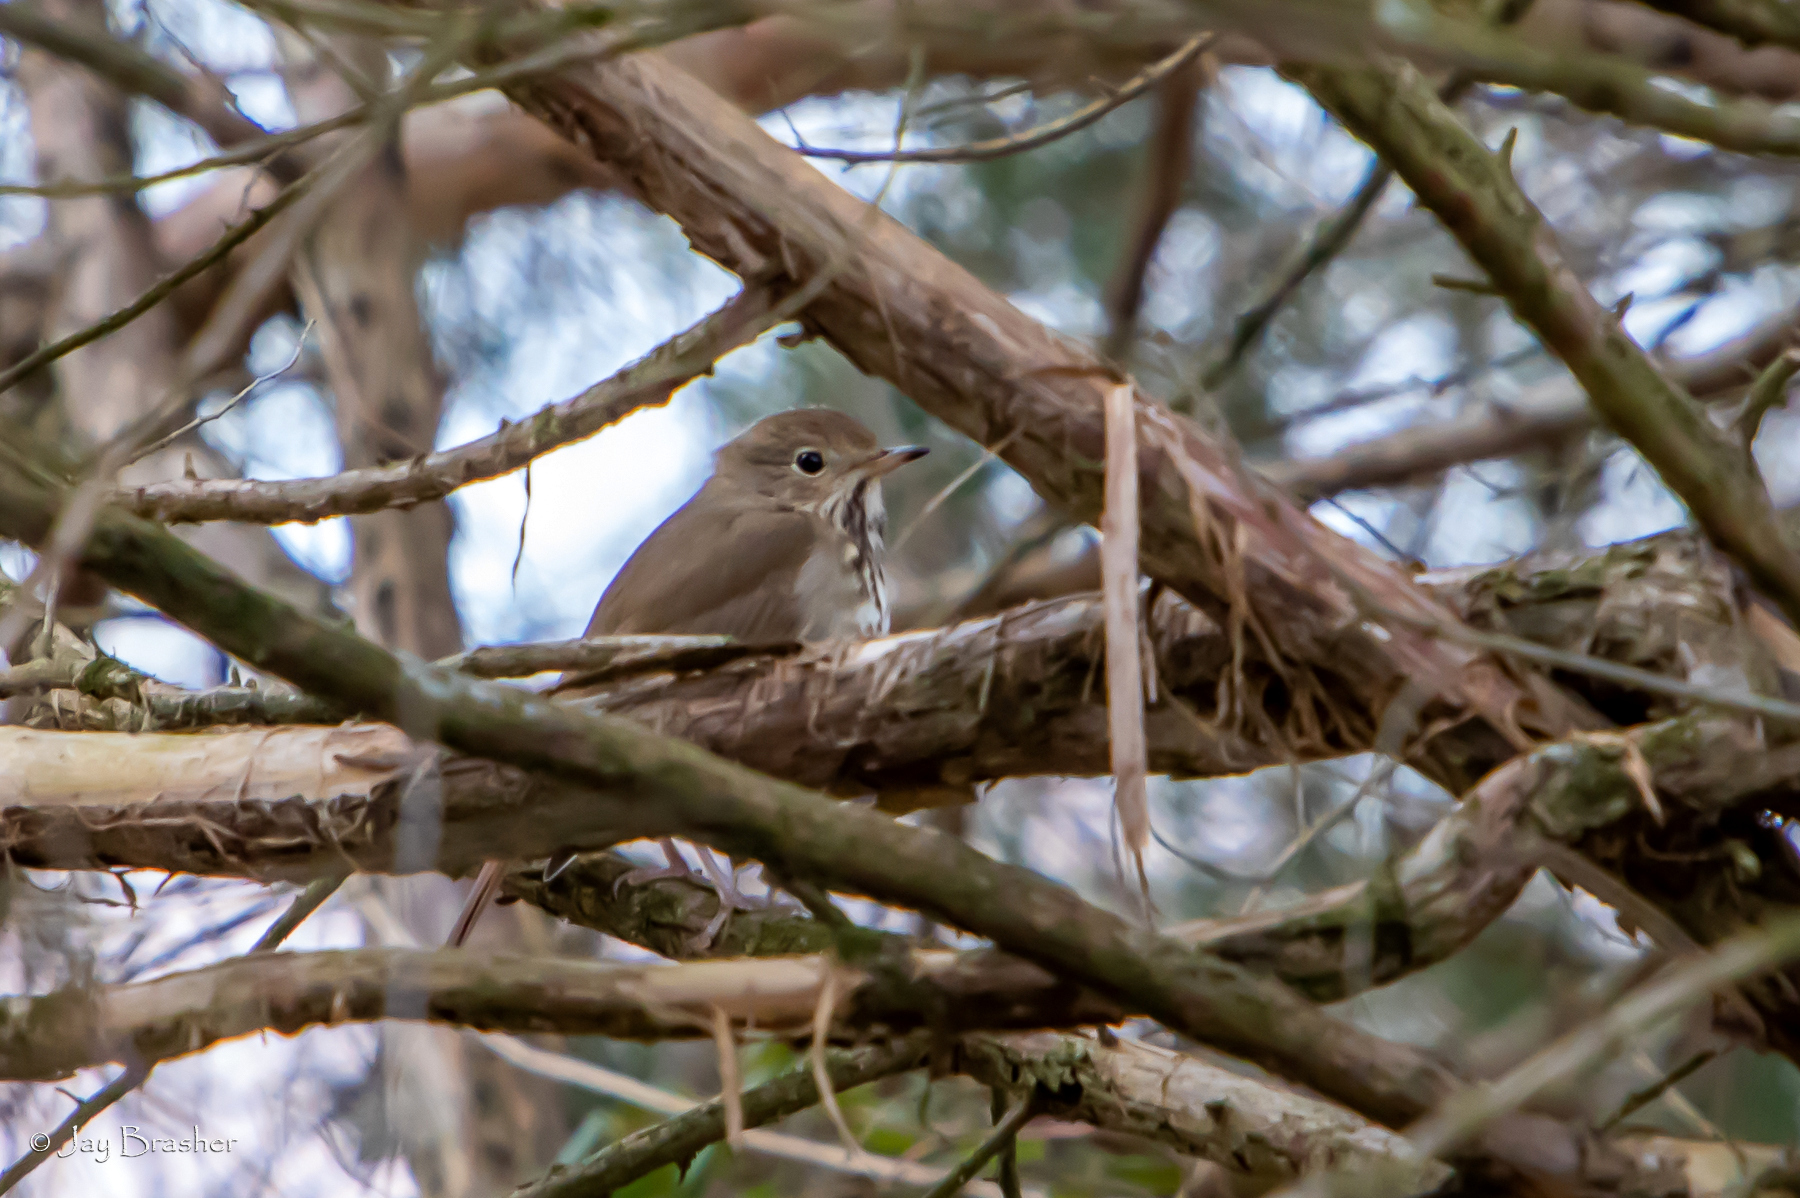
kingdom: Animalia
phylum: Chordata
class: Aves
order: Passeriformes
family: Turdidae
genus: Catharus
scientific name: Catharus guttatus
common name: Hermit thrush
